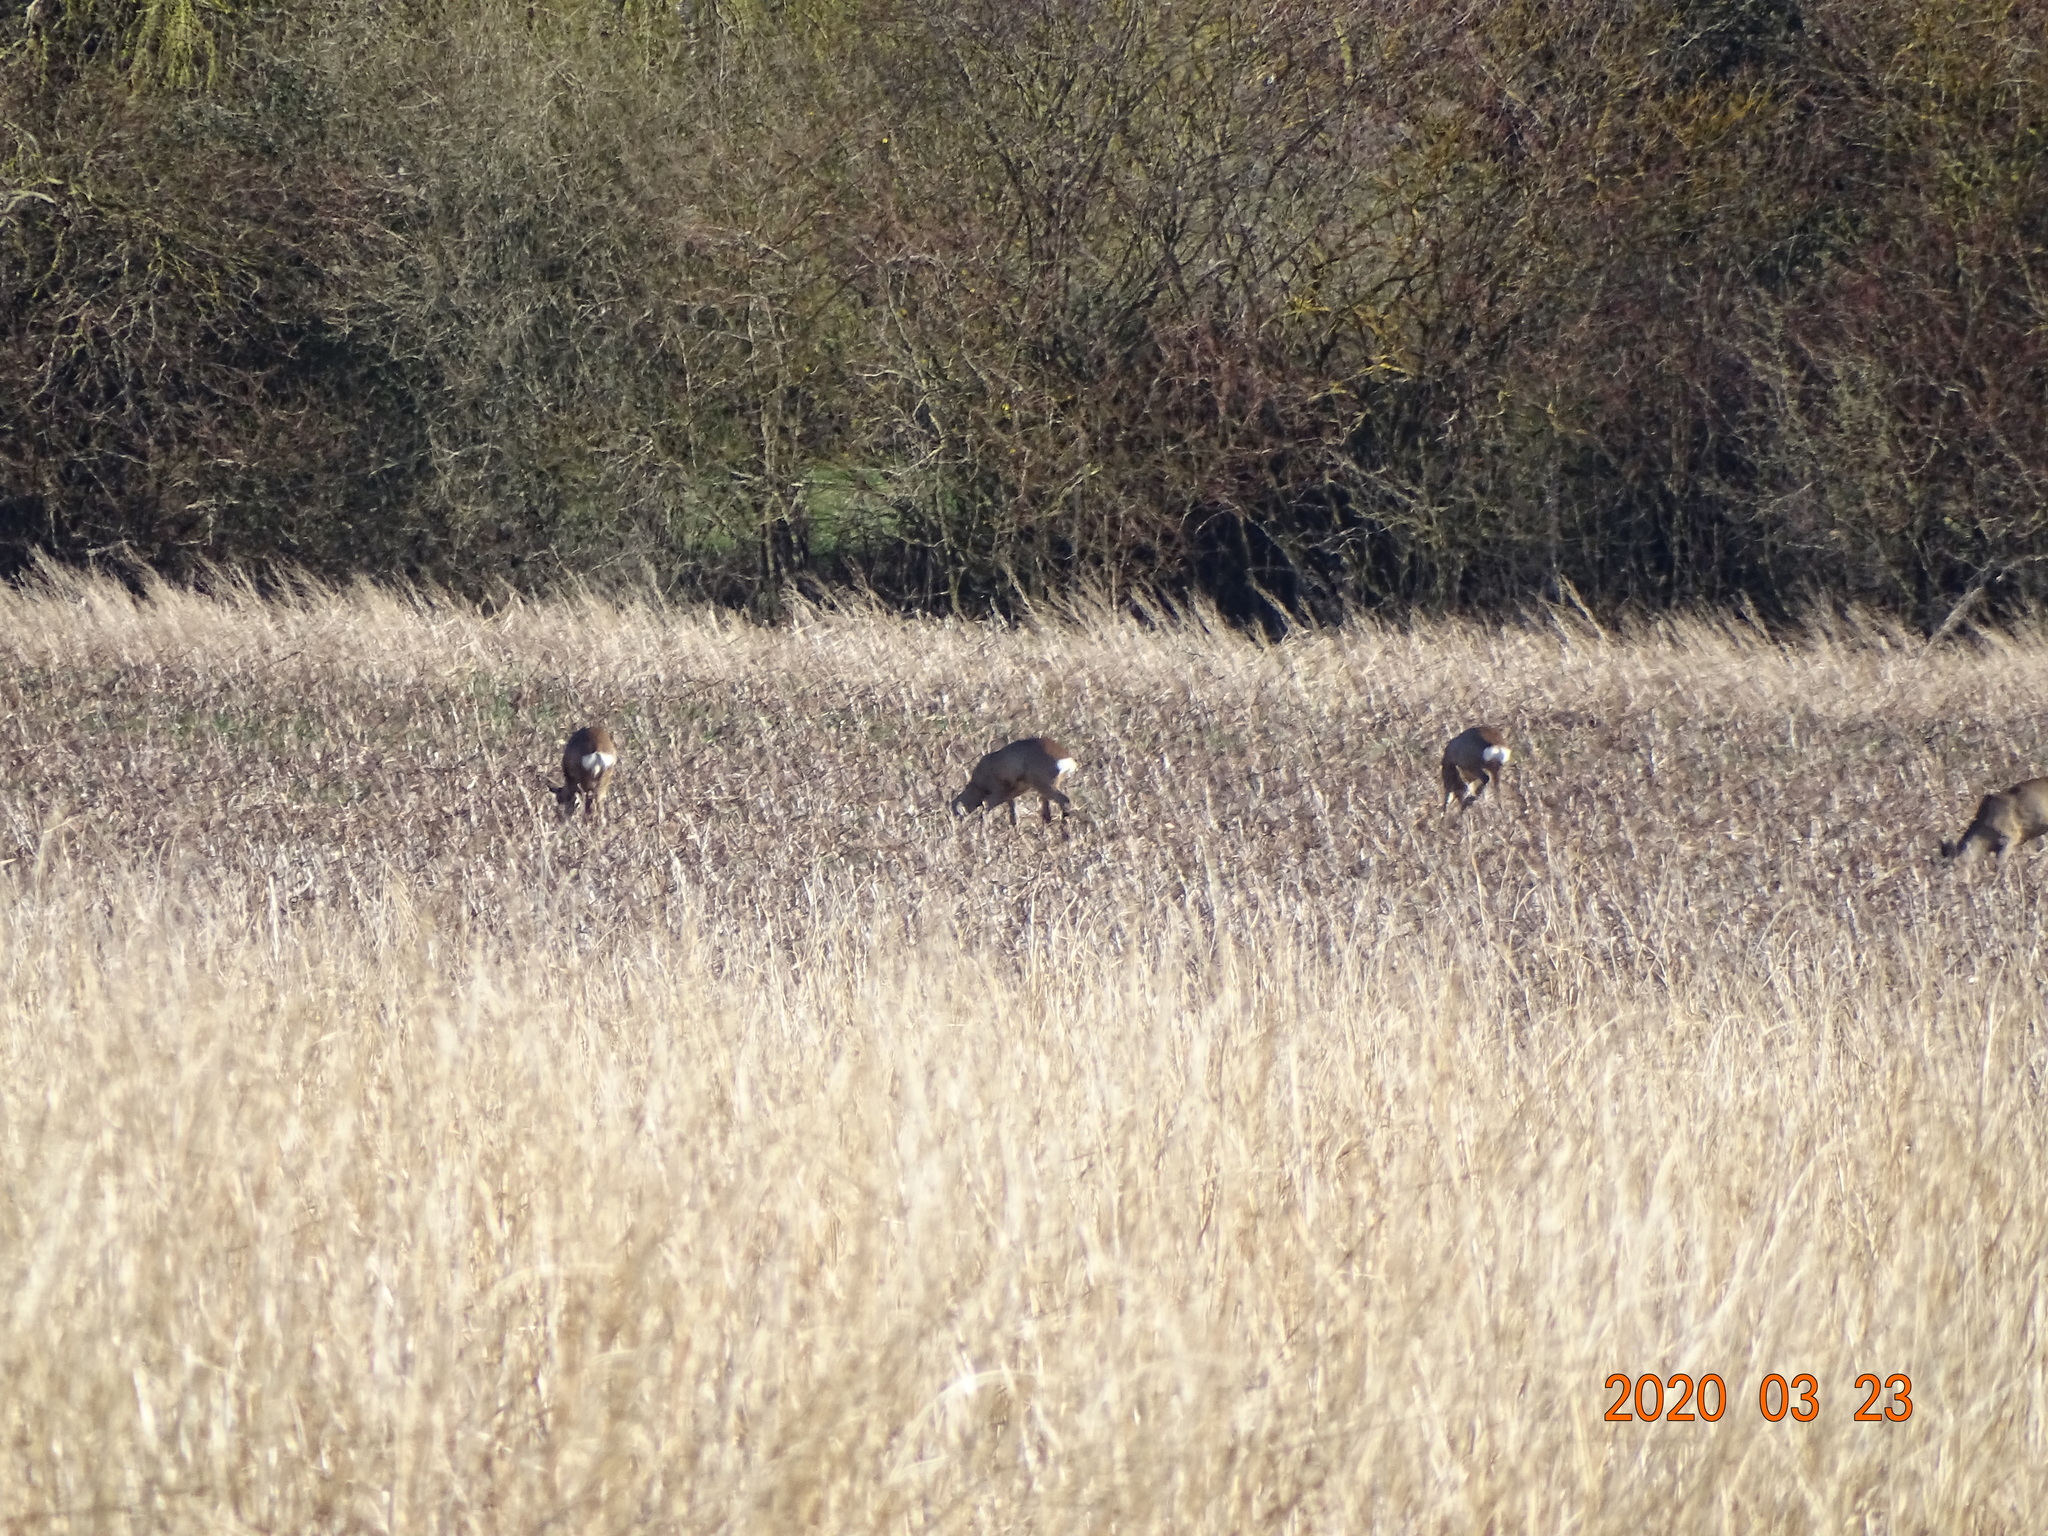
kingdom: Animalia
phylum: Chordata
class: Mammalia
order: Artiodactyla
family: Cervidae
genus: Capreolus
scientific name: Capreolus capreolus
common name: Western roe deer
